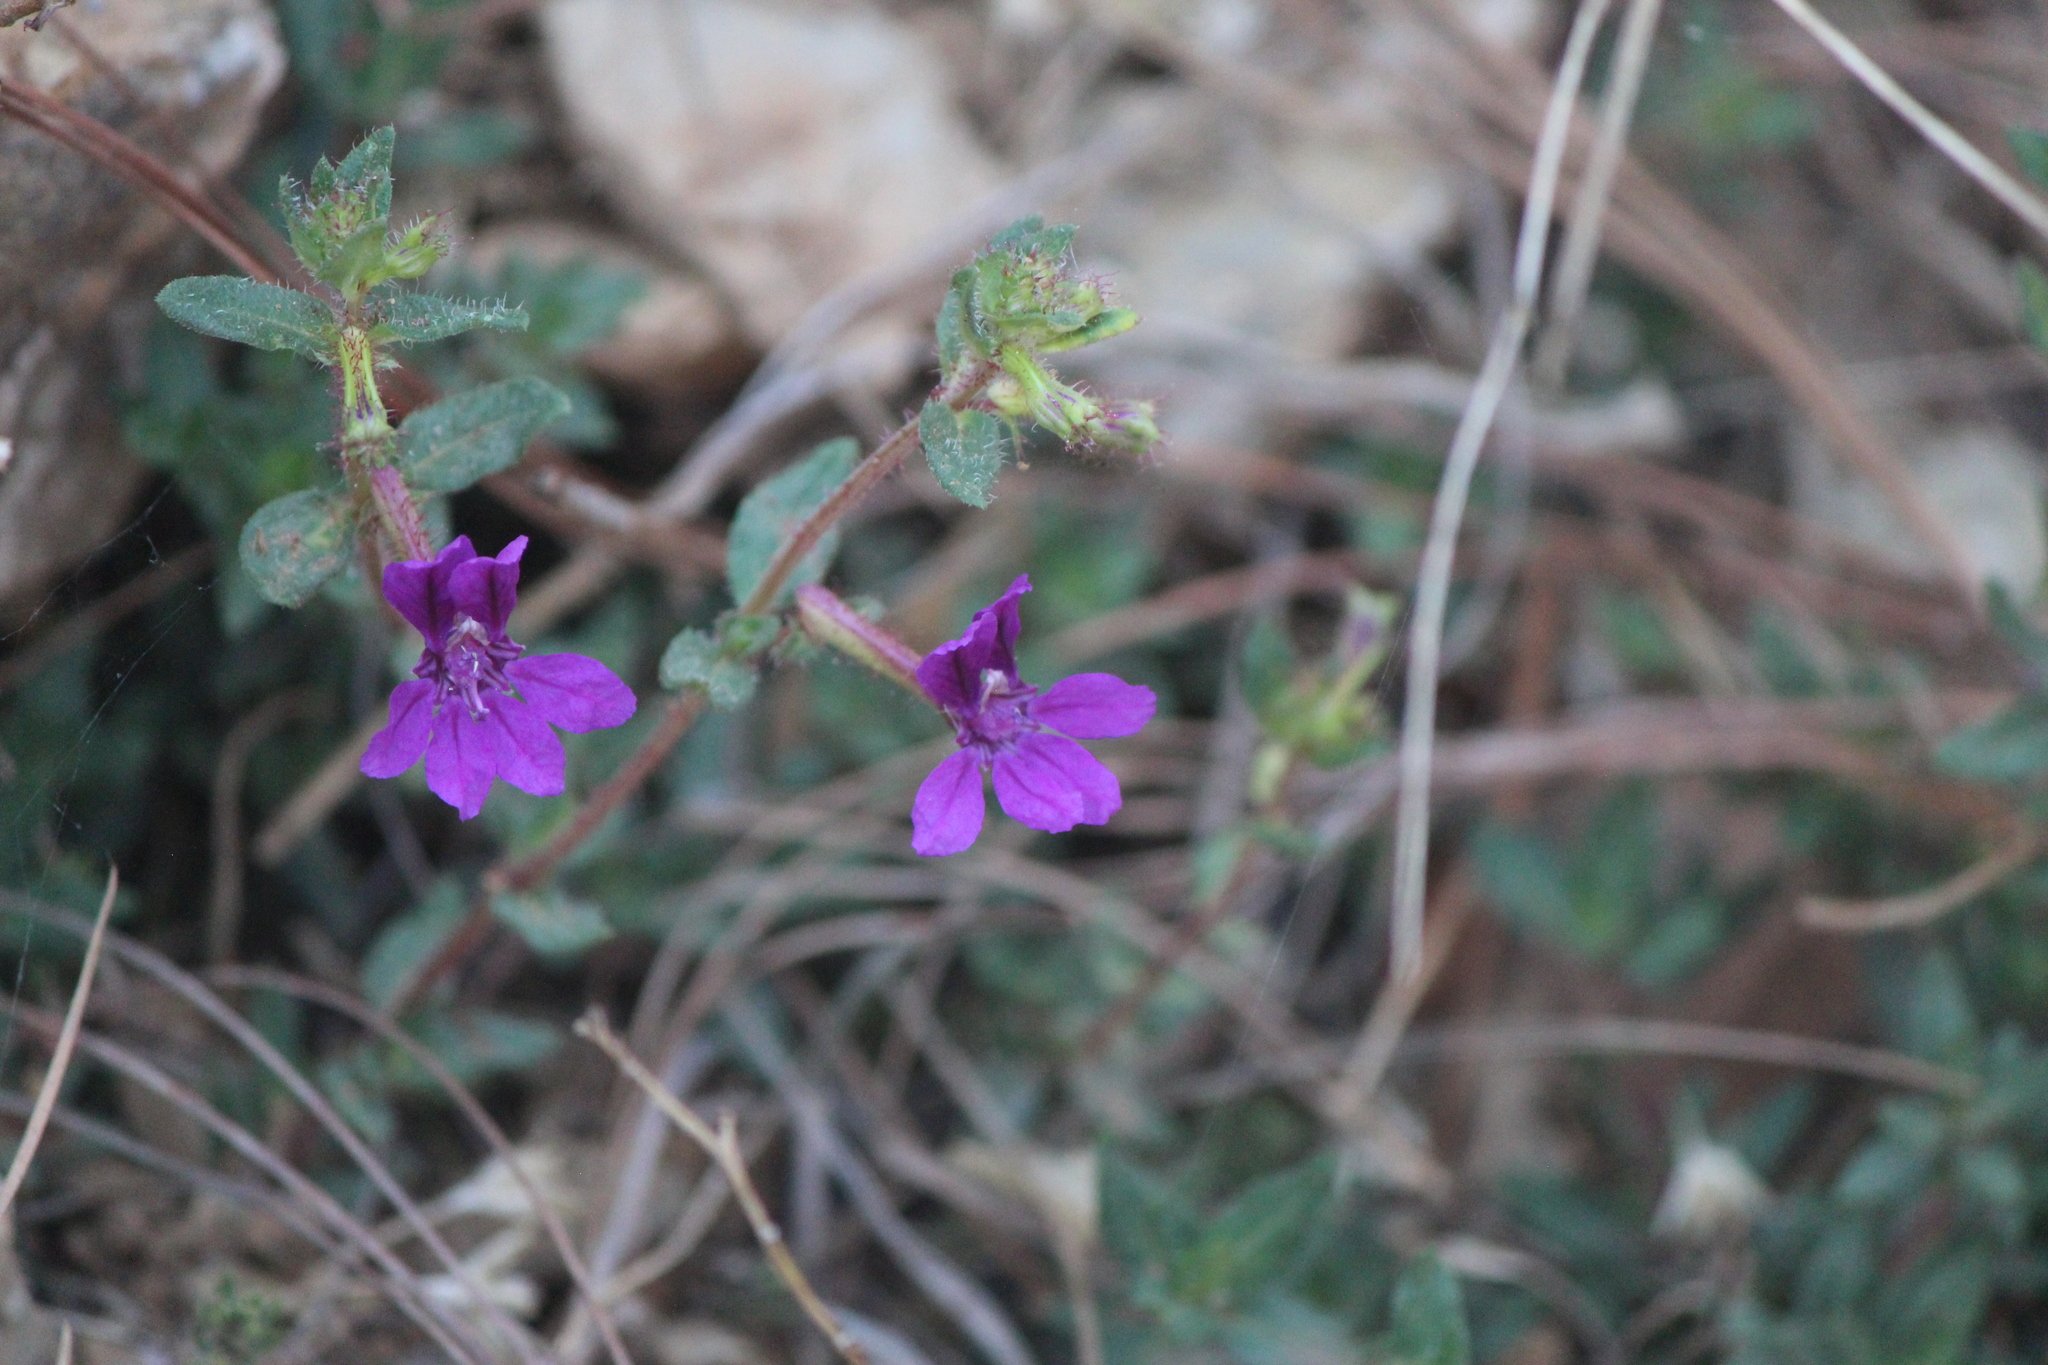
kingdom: Plantae
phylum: Tracheophyta
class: Magnoliopsida
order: Myrtales
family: Lythraceae
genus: Cuphea
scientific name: Cuphea aequipetala
